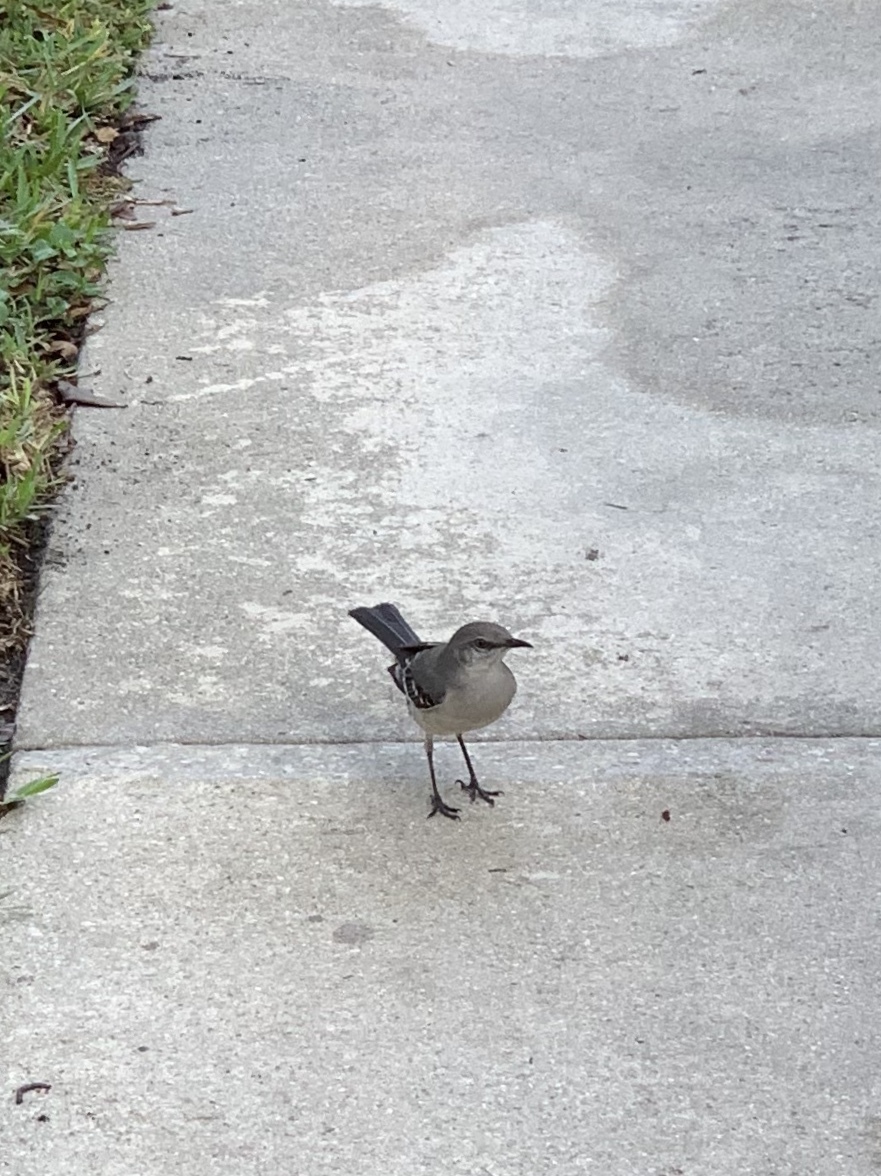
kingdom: Animalia
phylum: Chordata
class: Aves
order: Passeriformes
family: Mimidae
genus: Mimus
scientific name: Mimus polyglottos
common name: Northern mockingbird
